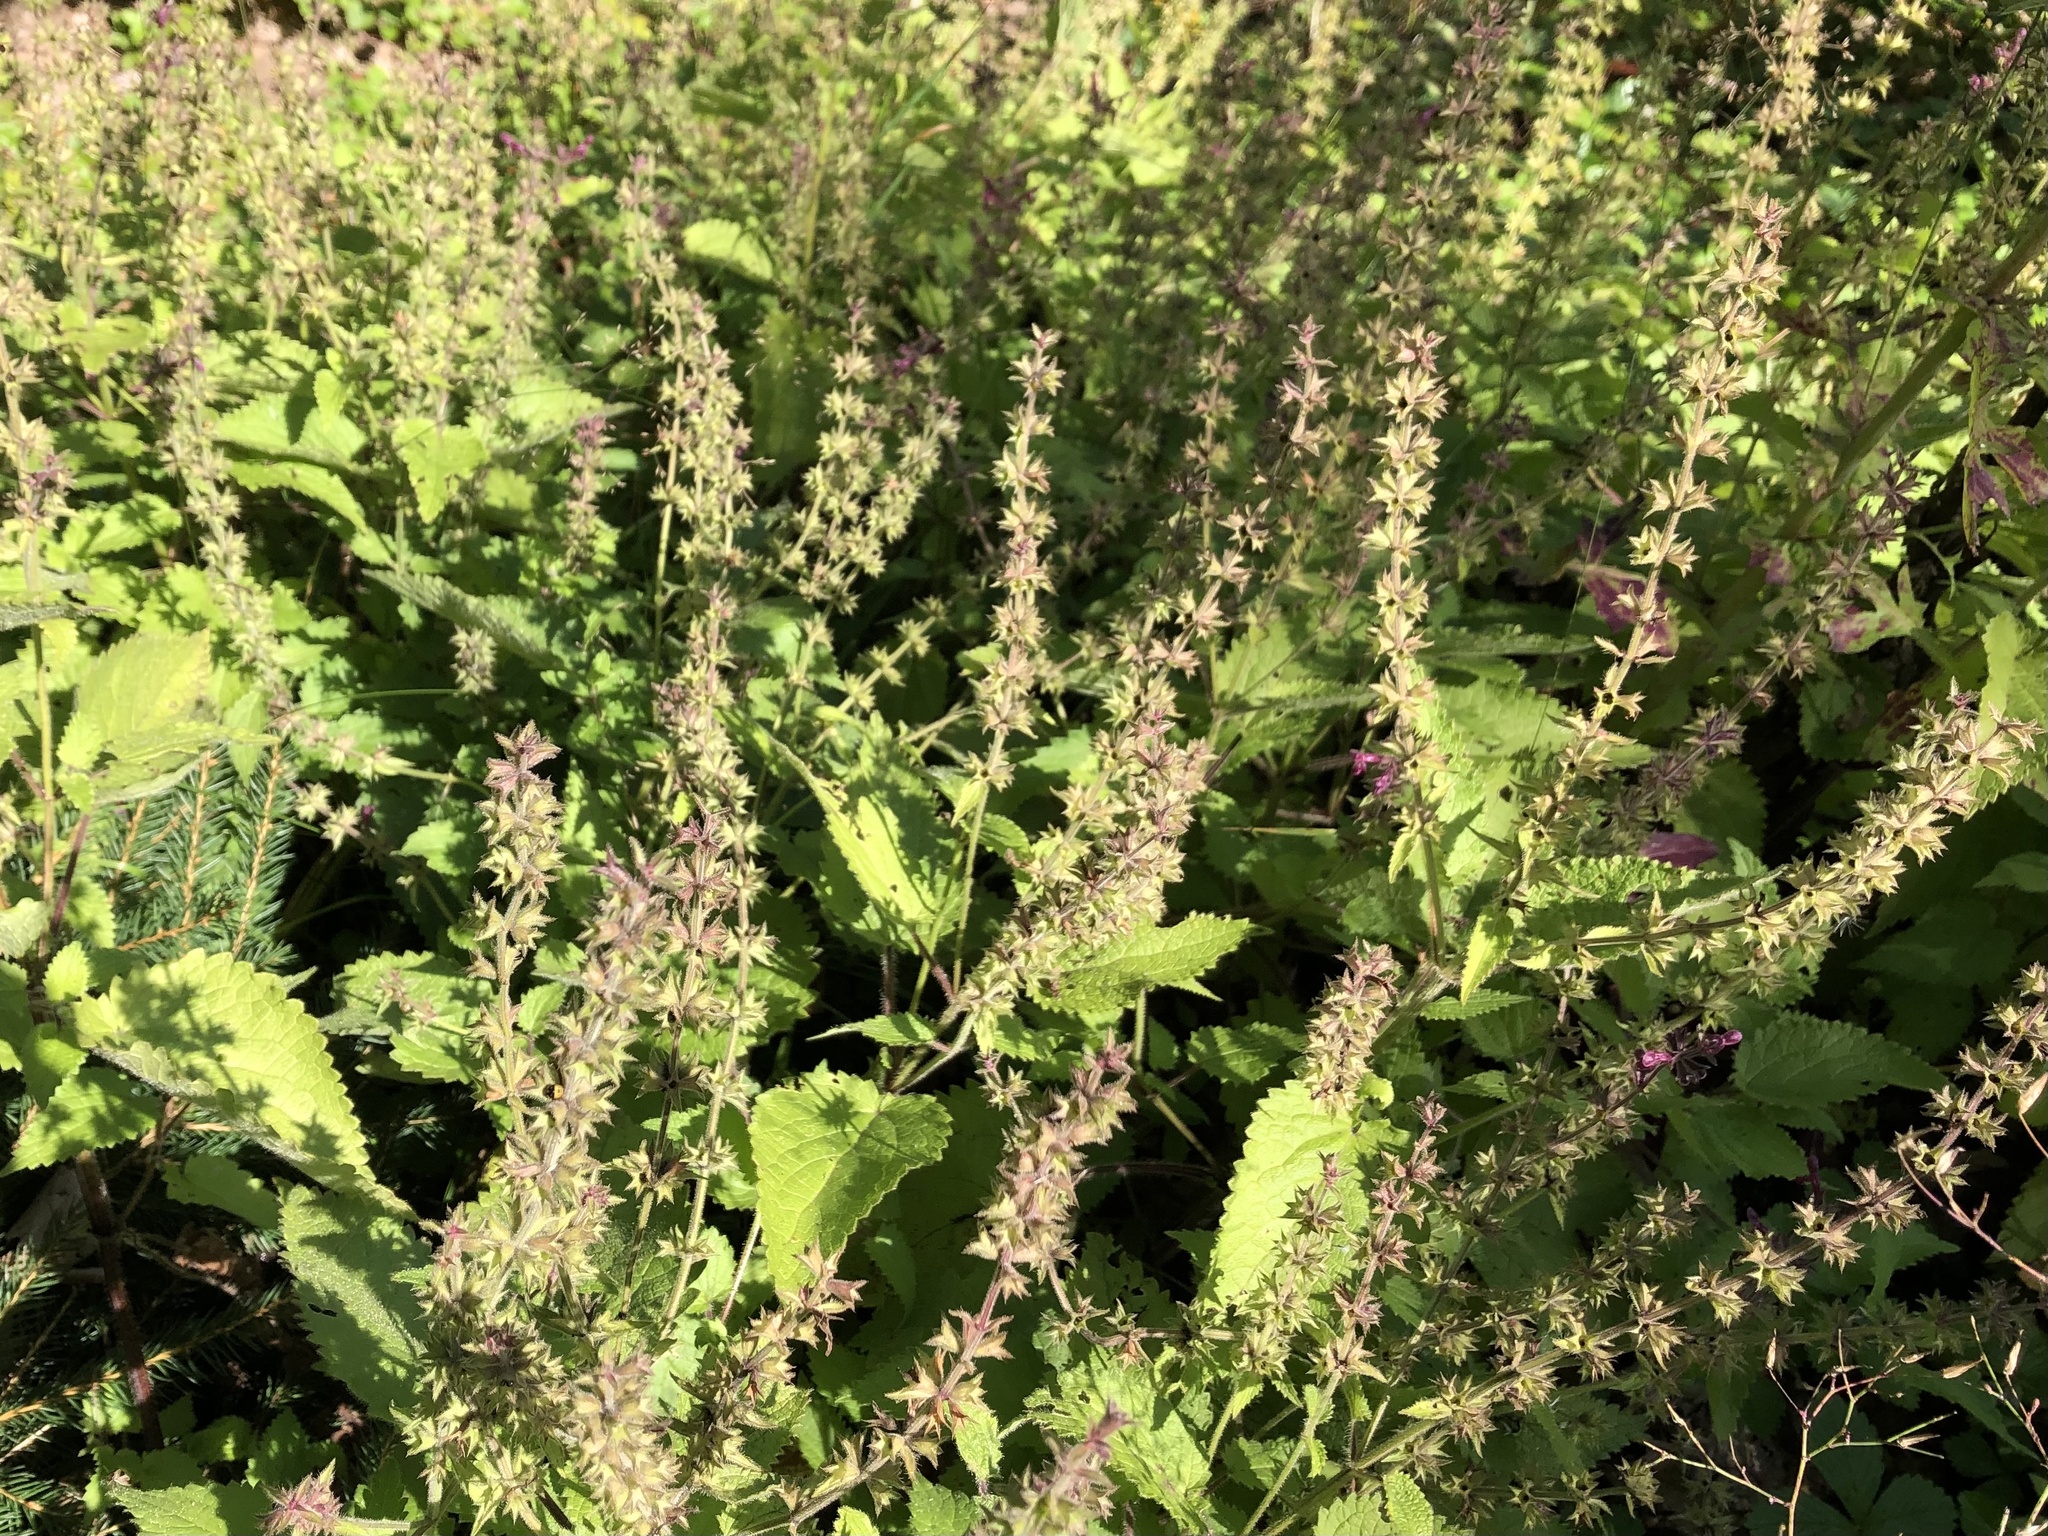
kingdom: Plantae
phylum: Tracheophyta
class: Magnoliopsida
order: Lamiales
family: Lamiaceae
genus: Stachys
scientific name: Stachys sylvatica
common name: Hedge woundwort
